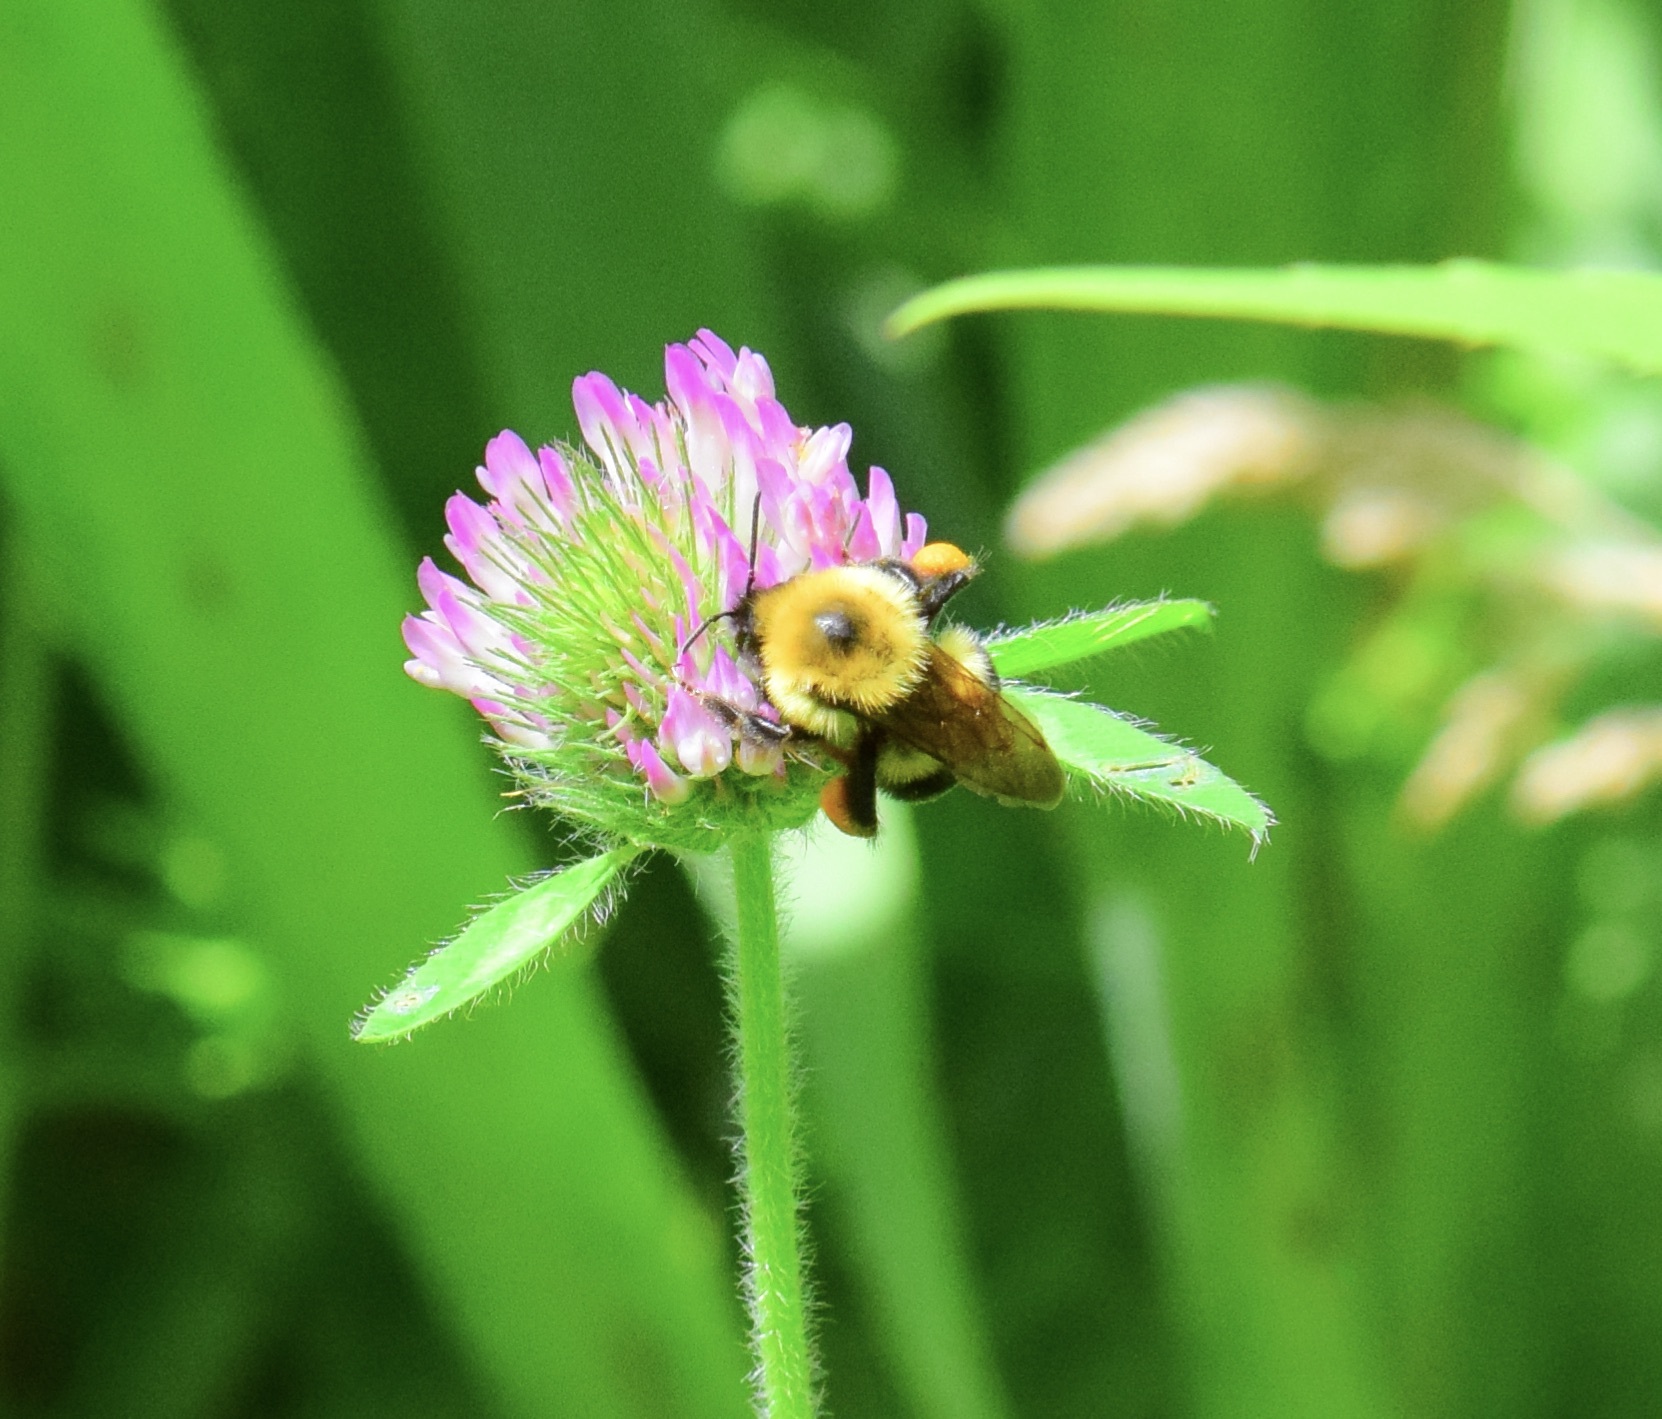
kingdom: Animalia
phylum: Arthropoda
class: Insecta
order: Hymenoptera
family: Apidae
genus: Bombus
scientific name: Bombus bimaculatus
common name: Two-spotted bumble bee
